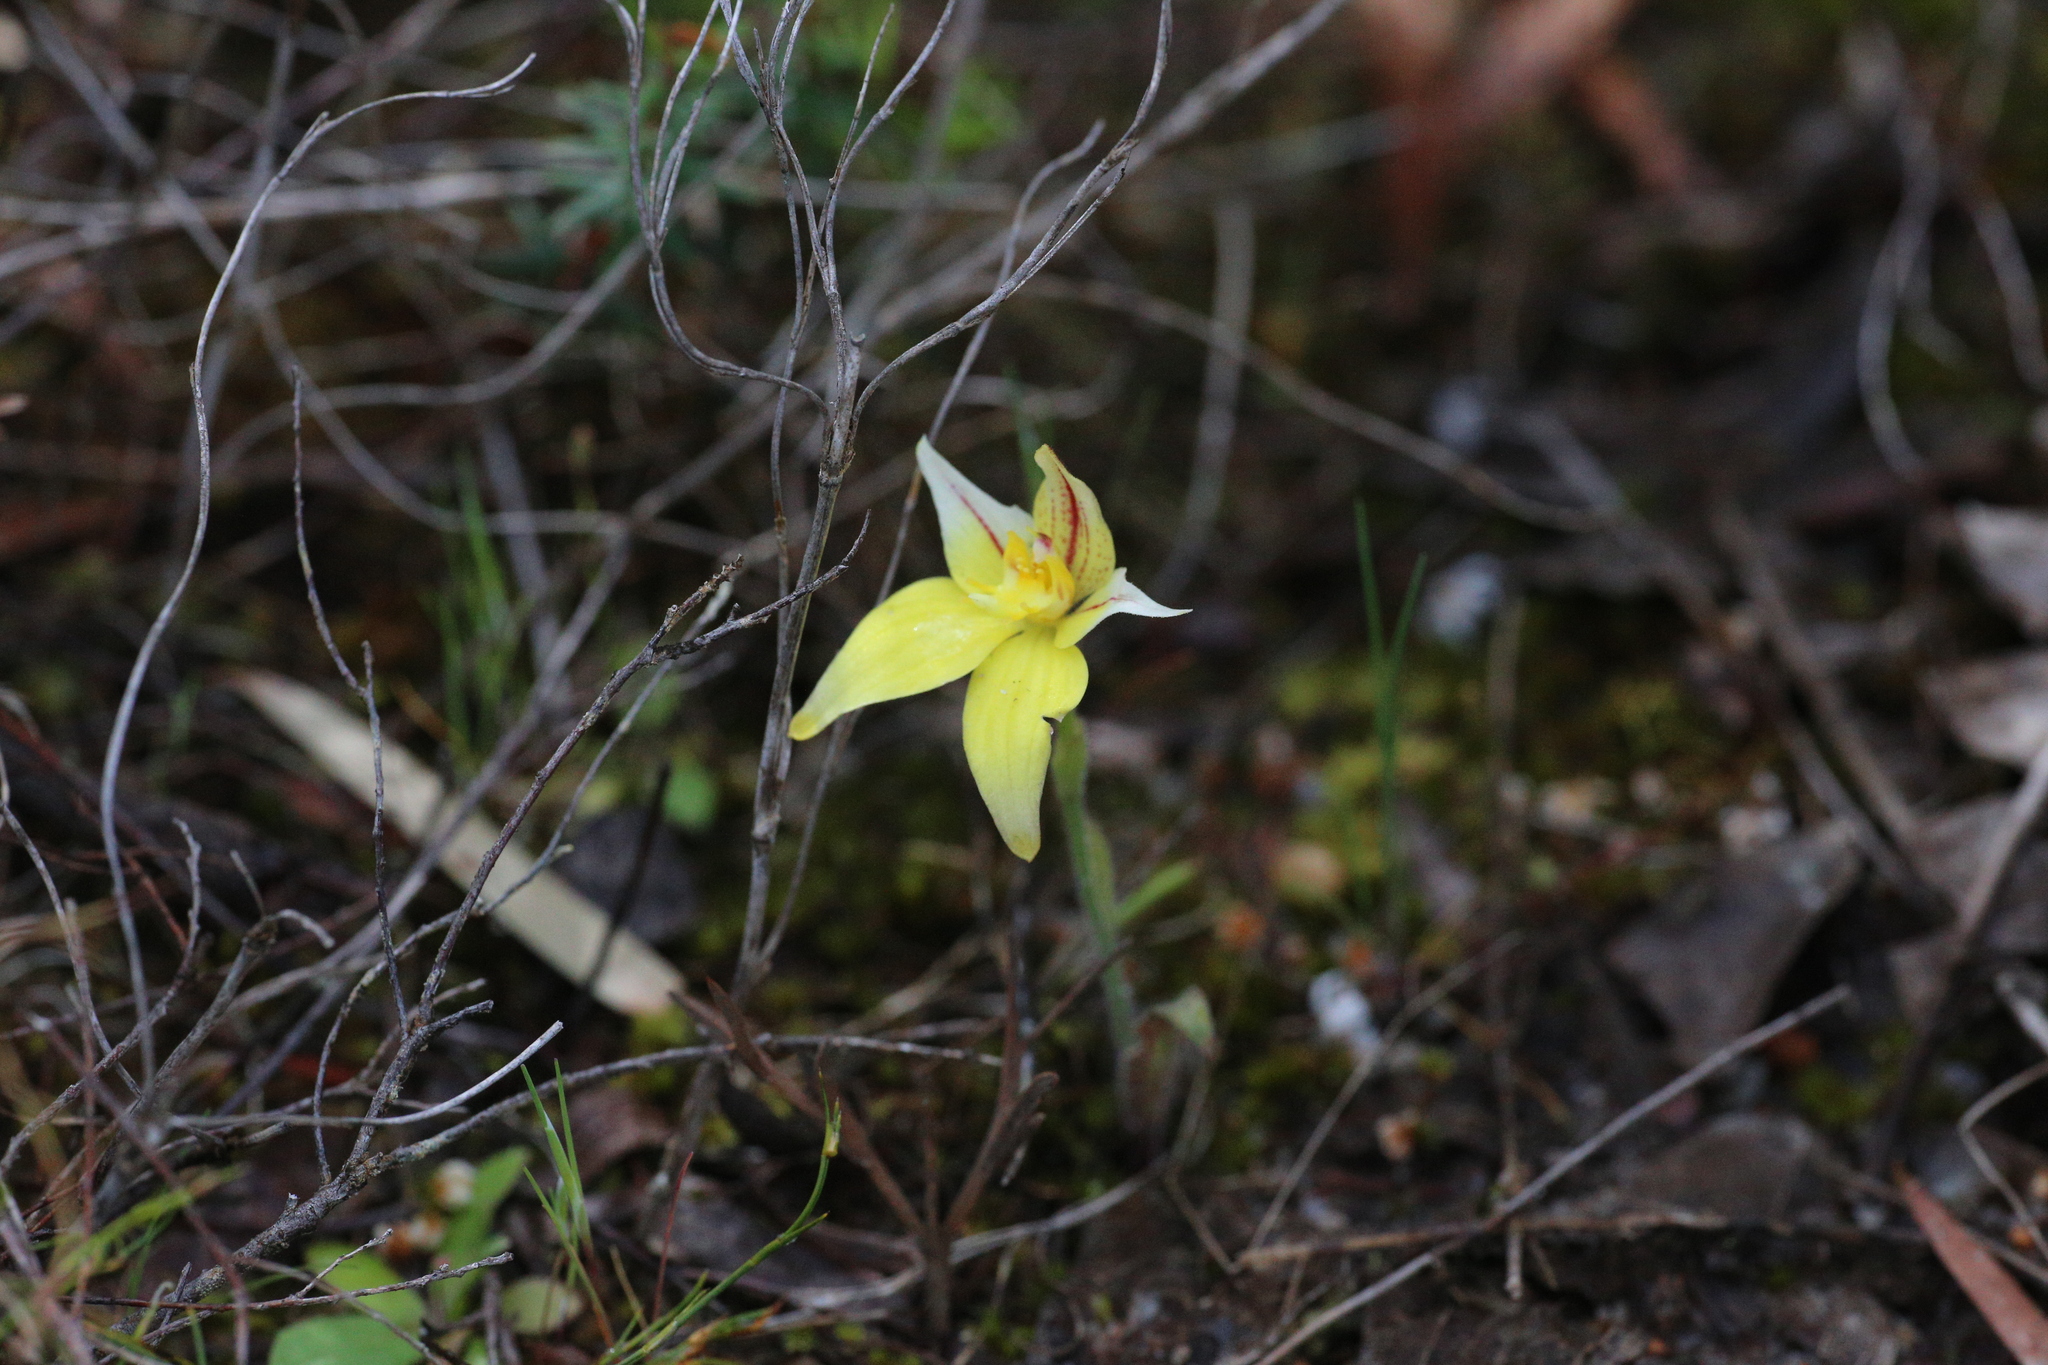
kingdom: Plantae
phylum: Tracheophyta
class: Liliopsida
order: Asparagales
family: Orchidaceae
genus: Caladenia
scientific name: Caladenia flava
